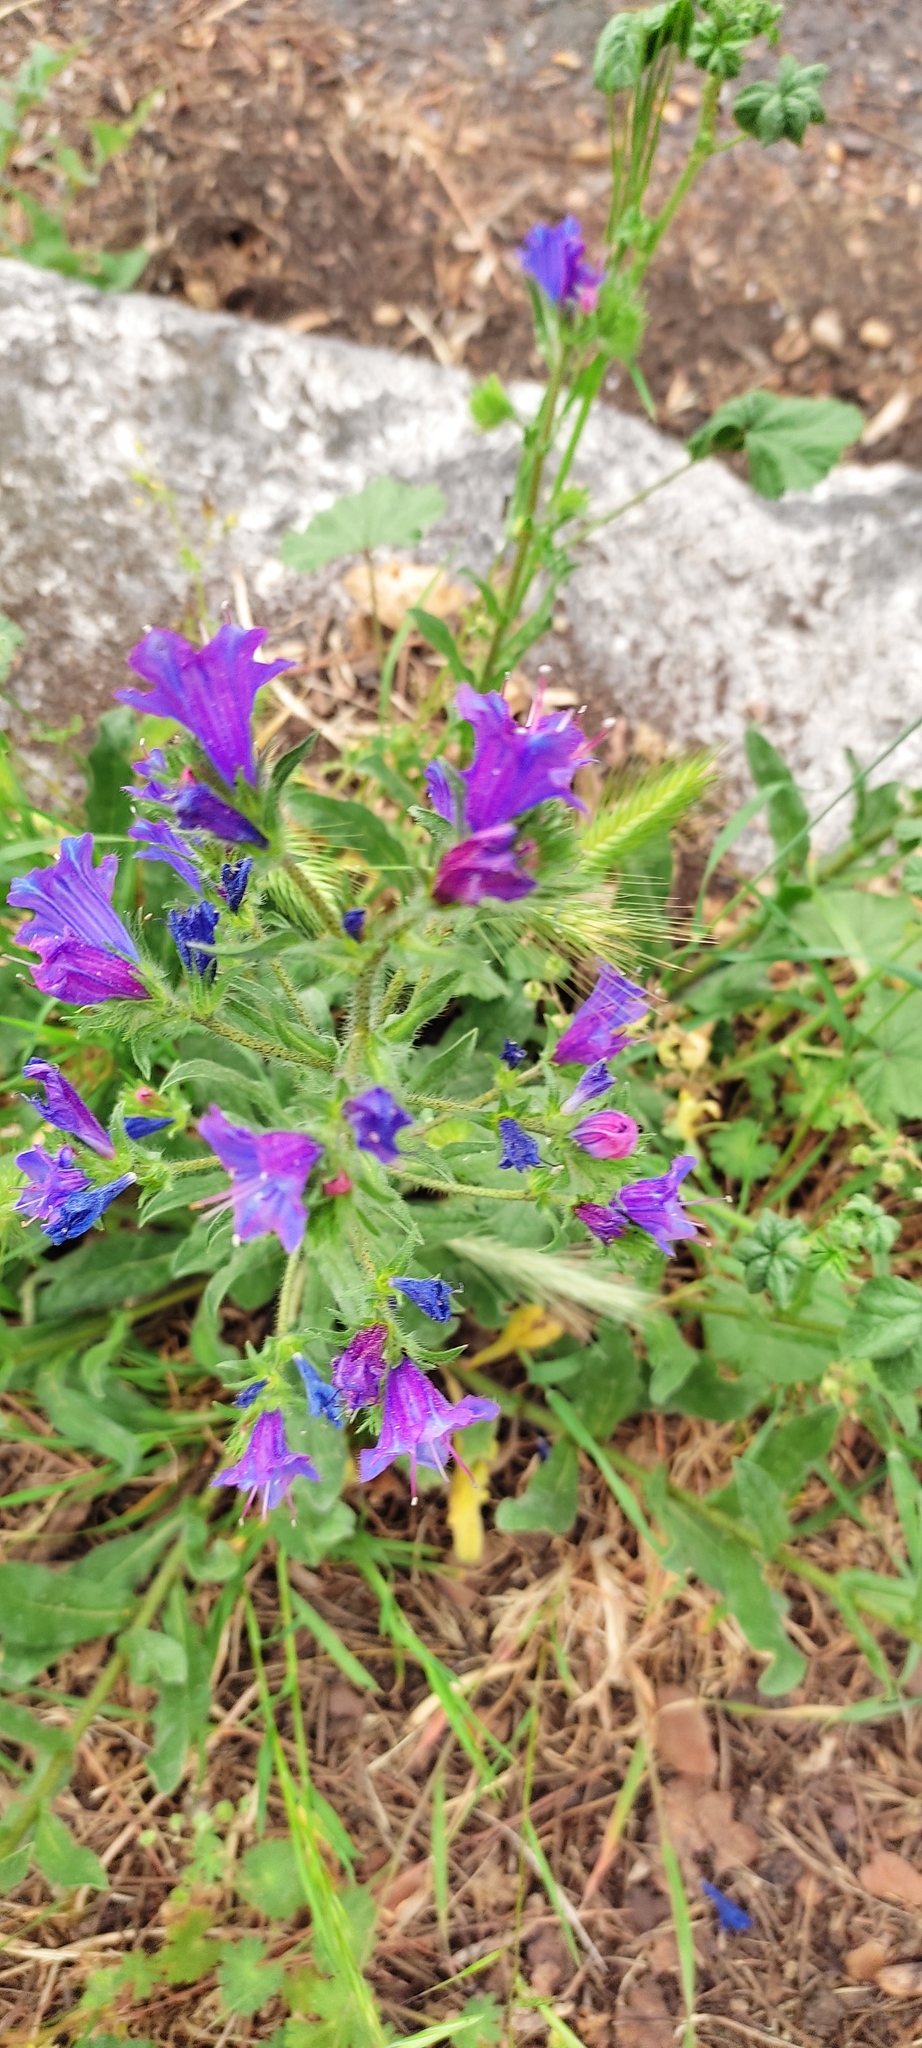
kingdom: Plantae
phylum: Tracheophyta
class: Magnoliopsida
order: Boraginales
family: Boraginaceae
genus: Echium
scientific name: Echium plantagineum
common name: Purple viper's-bugloss
